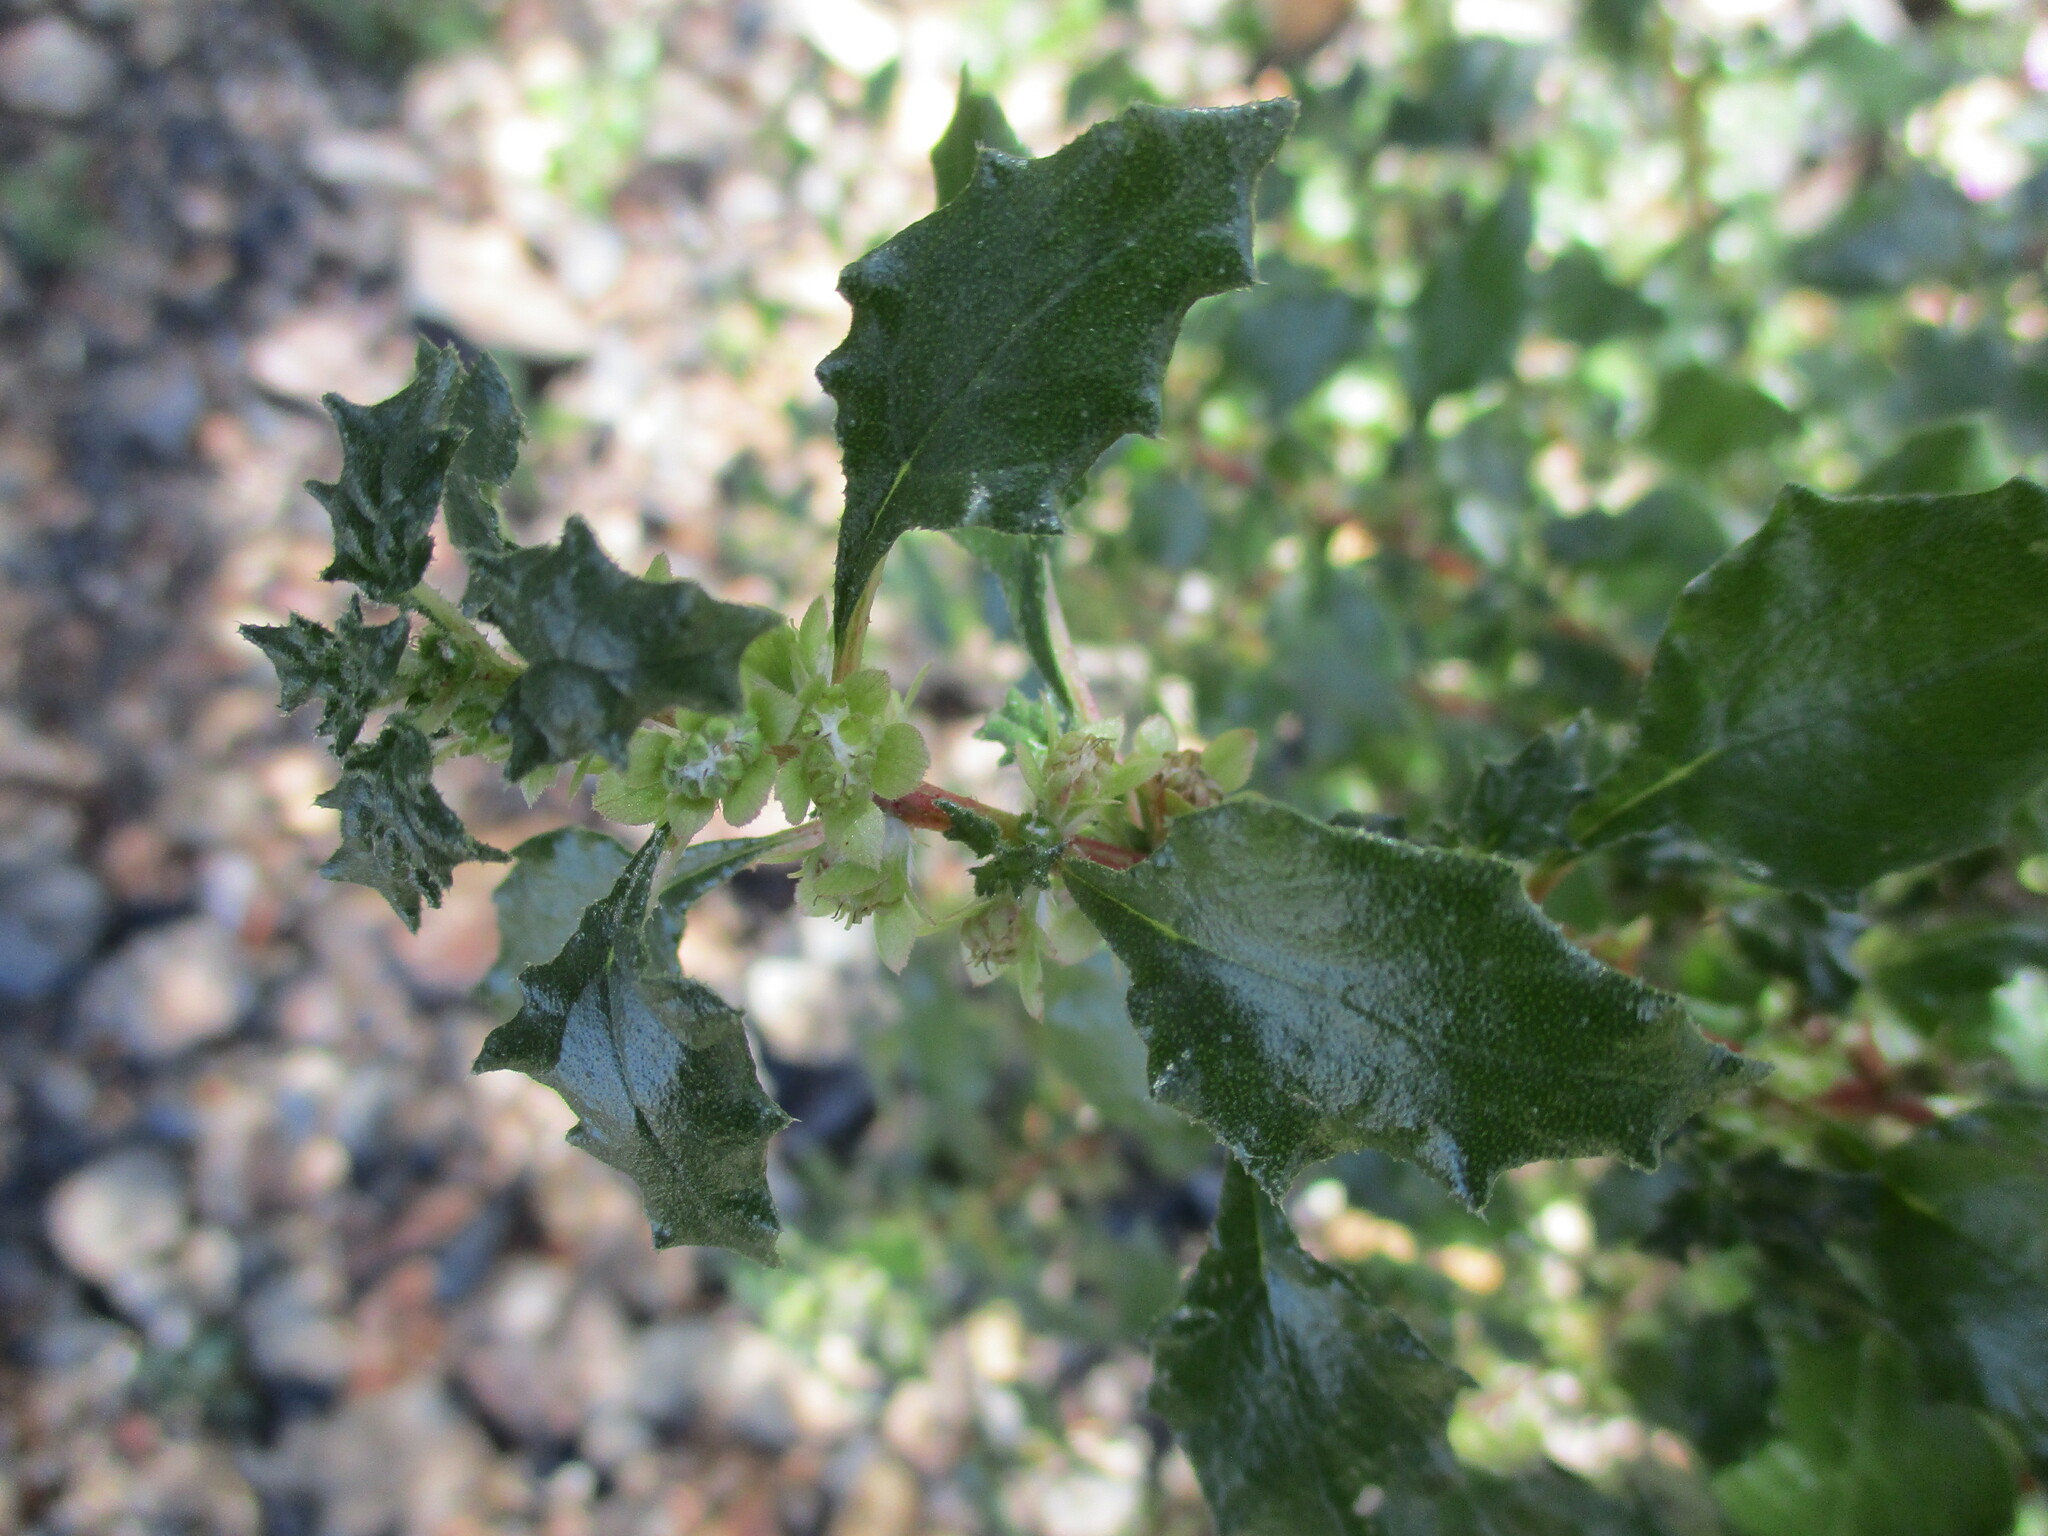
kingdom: Plantae
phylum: Tracheophyta
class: Magnoliopsida
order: Rosales
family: Urticaceae
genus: Forsskaolea
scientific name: Forsskaolea candida
